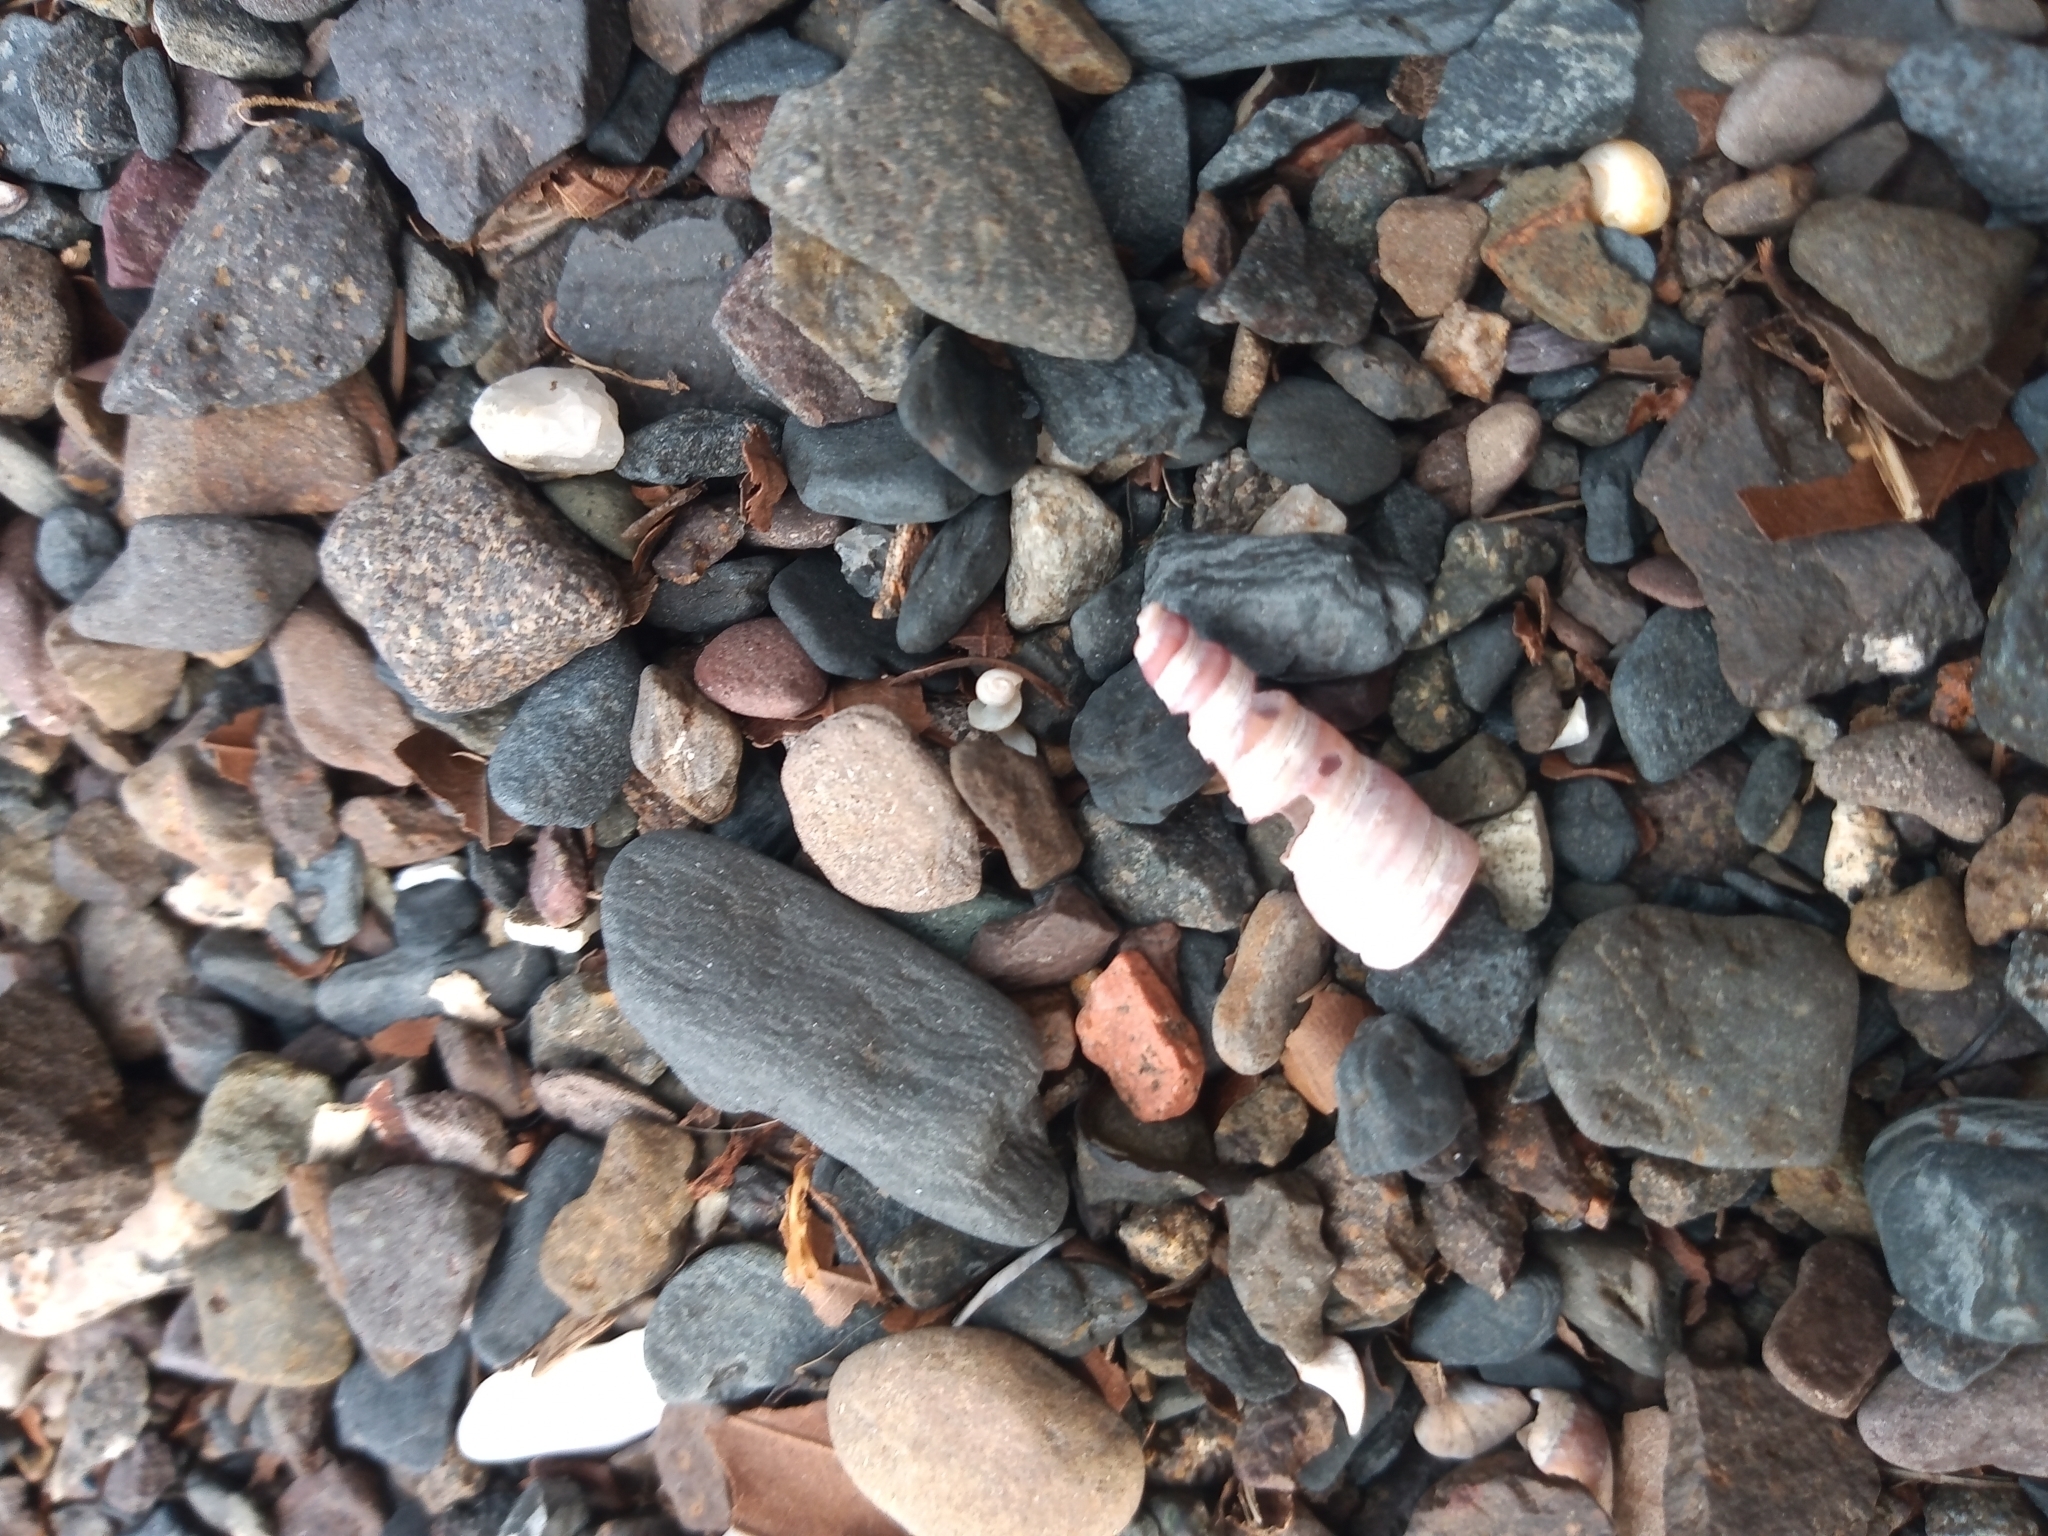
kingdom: Animalia
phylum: Mollusca
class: Gastropoda
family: Turritellidae
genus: Turritellinella
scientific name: Turritellinella tricarinata
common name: Auger shell
